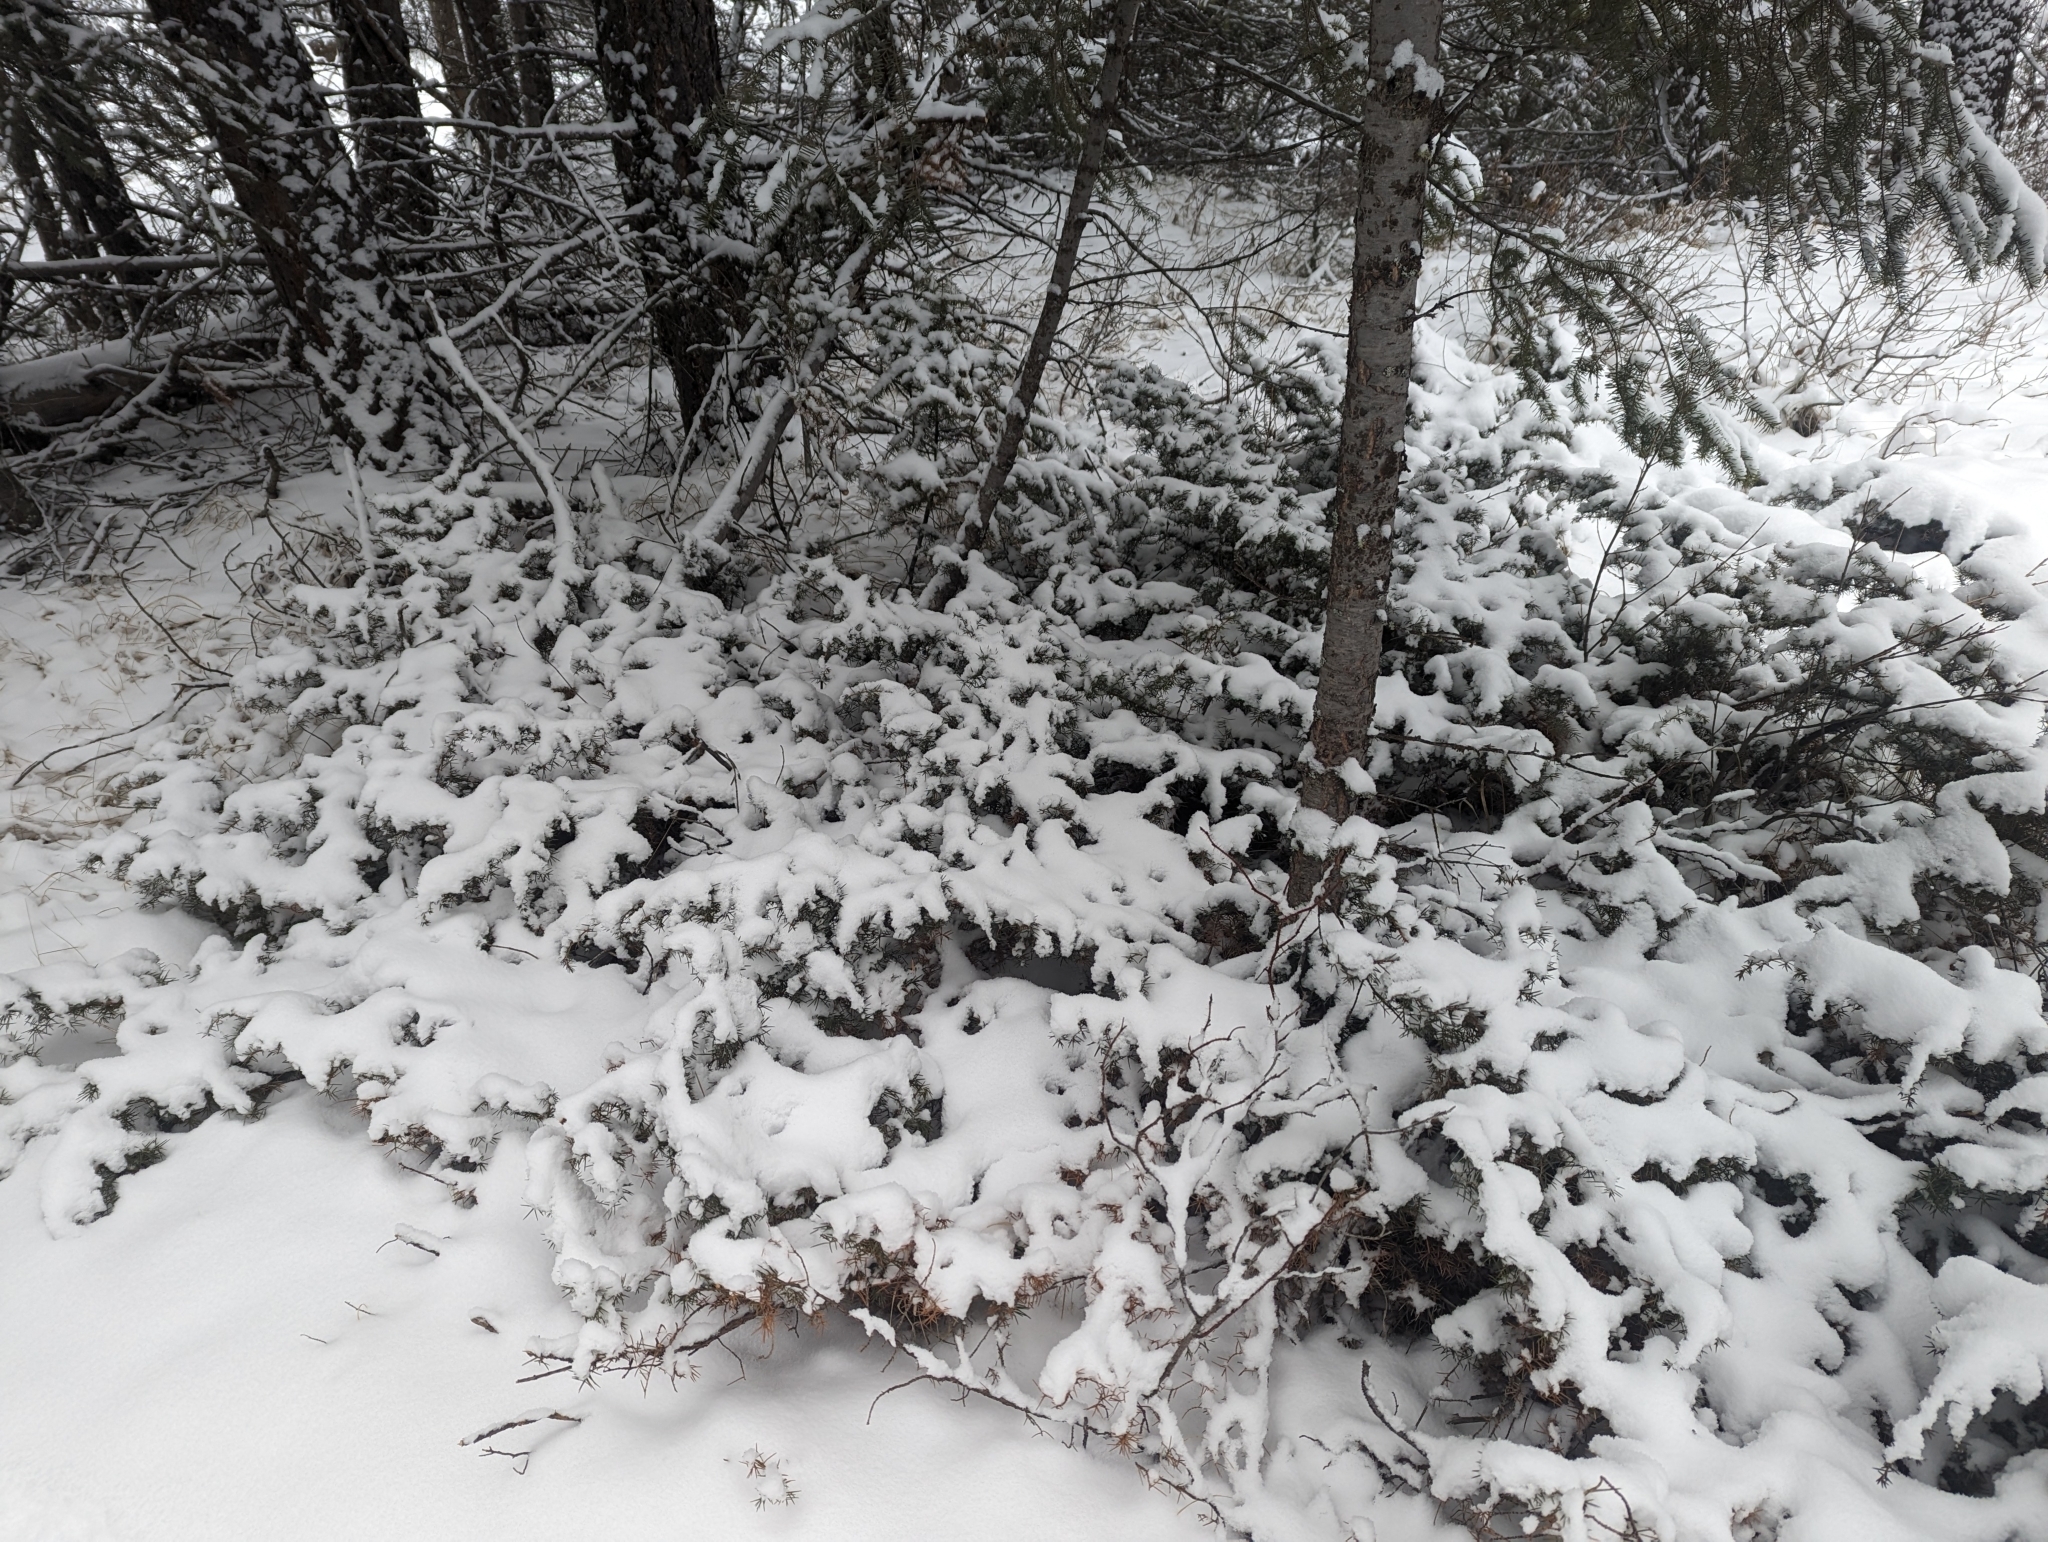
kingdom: Plantae
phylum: Tracheophyta
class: Pinopsida
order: Pinales
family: Cupressaceae
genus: Juniperus
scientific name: Juniperus communis
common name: Common juniper
